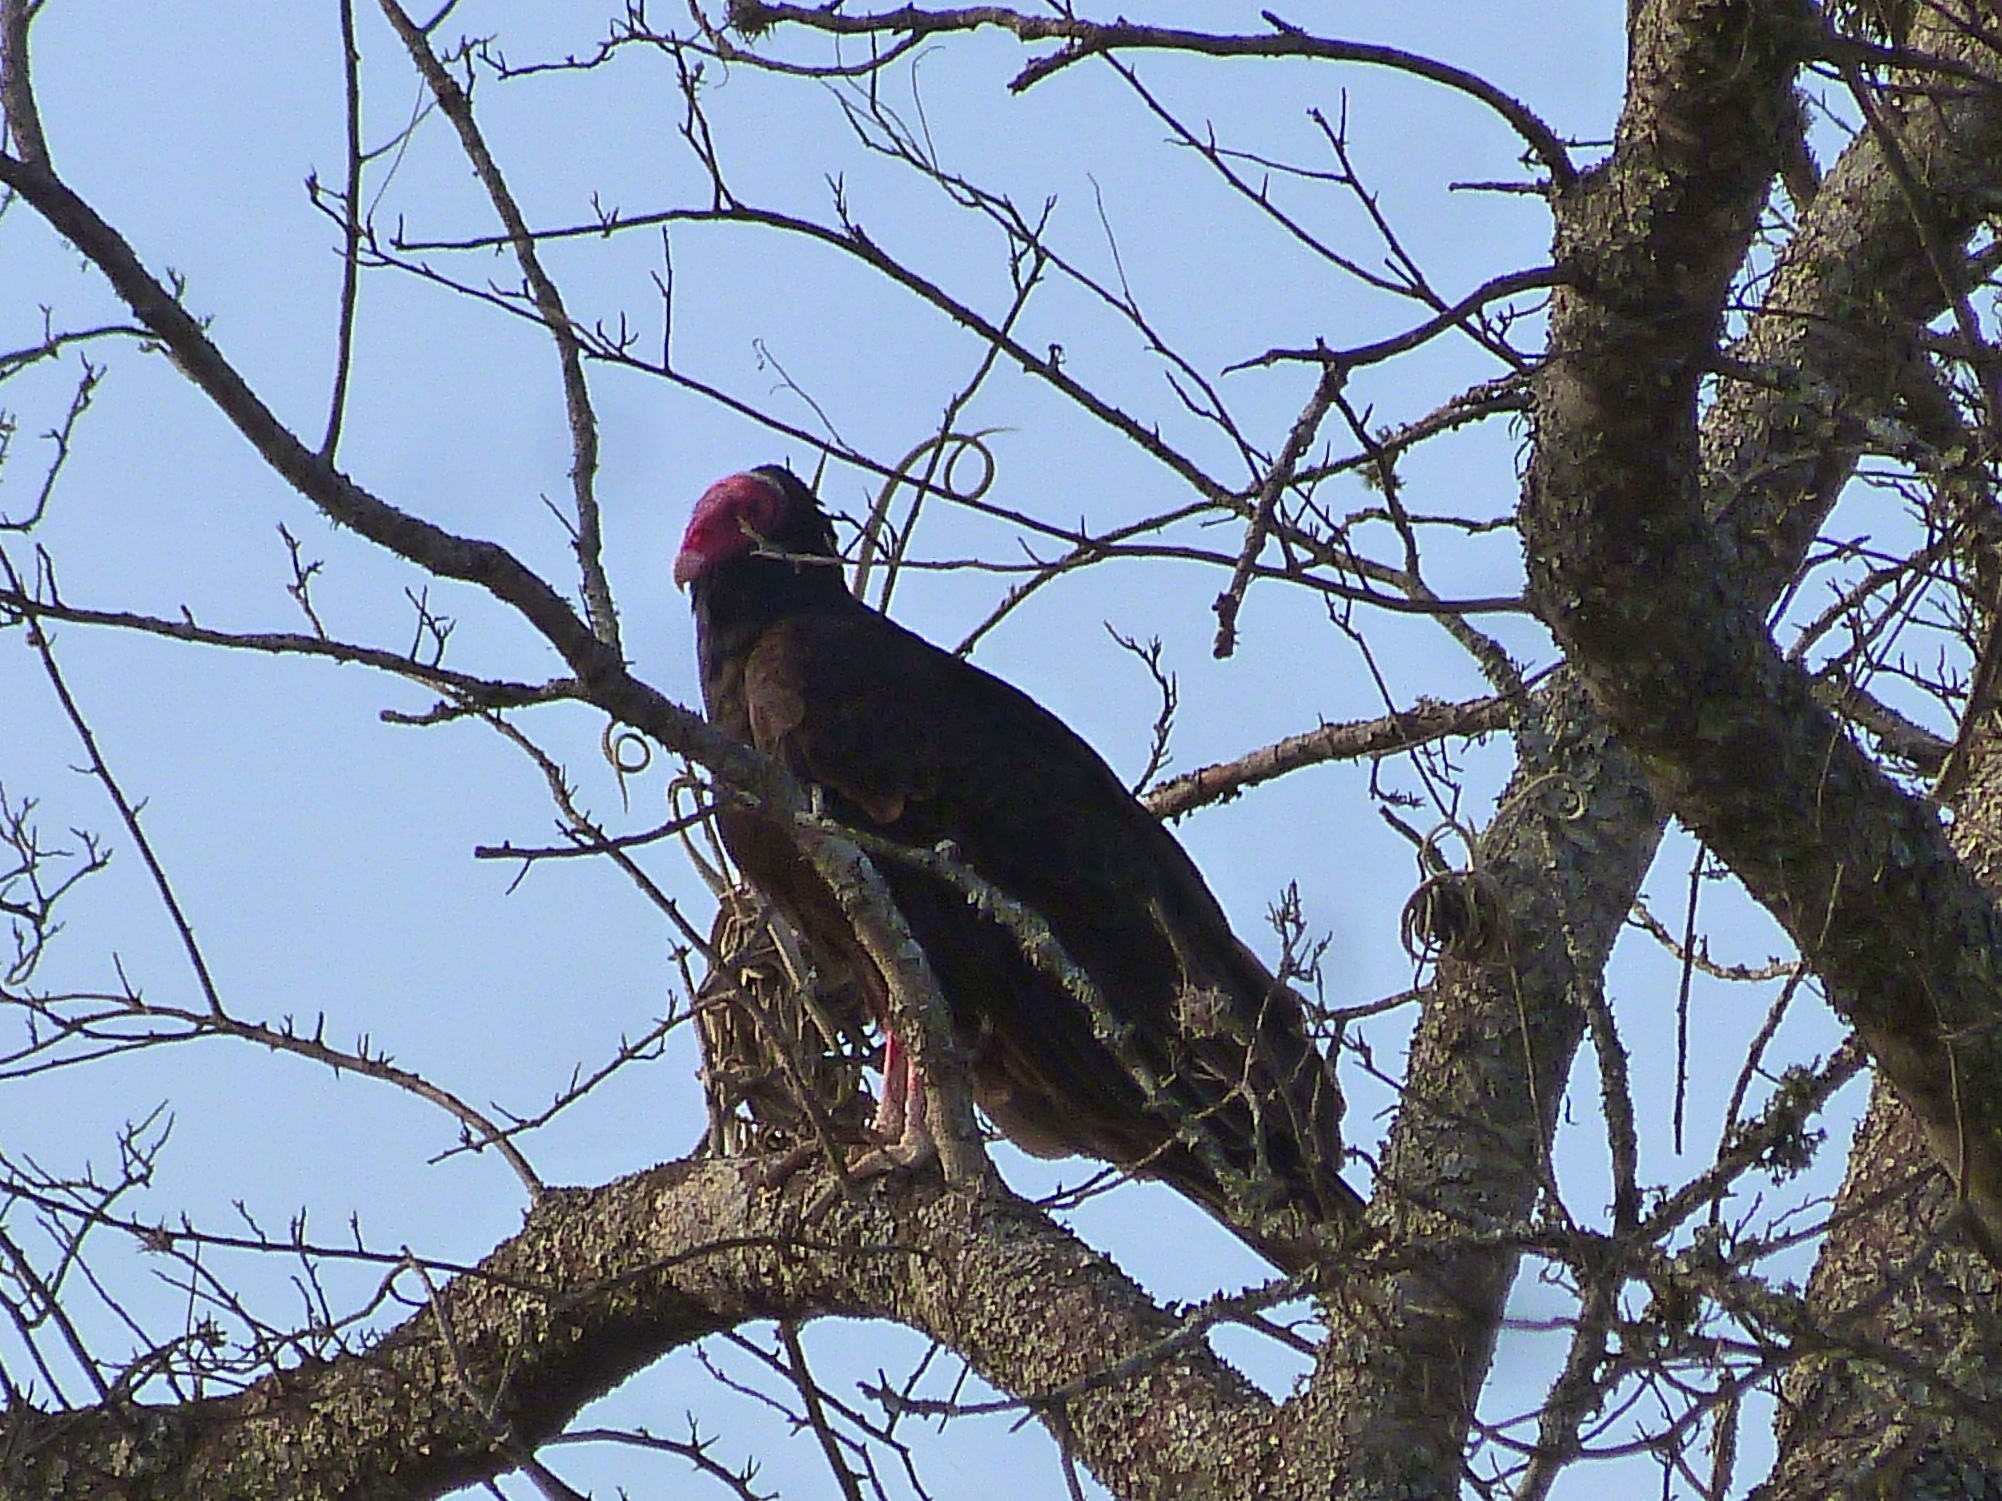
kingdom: Animalia
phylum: Chordata
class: Aves
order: Accipitriformes
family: Cathartidae
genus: Cathartes
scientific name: Cathartes aura
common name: Turkey vulture
